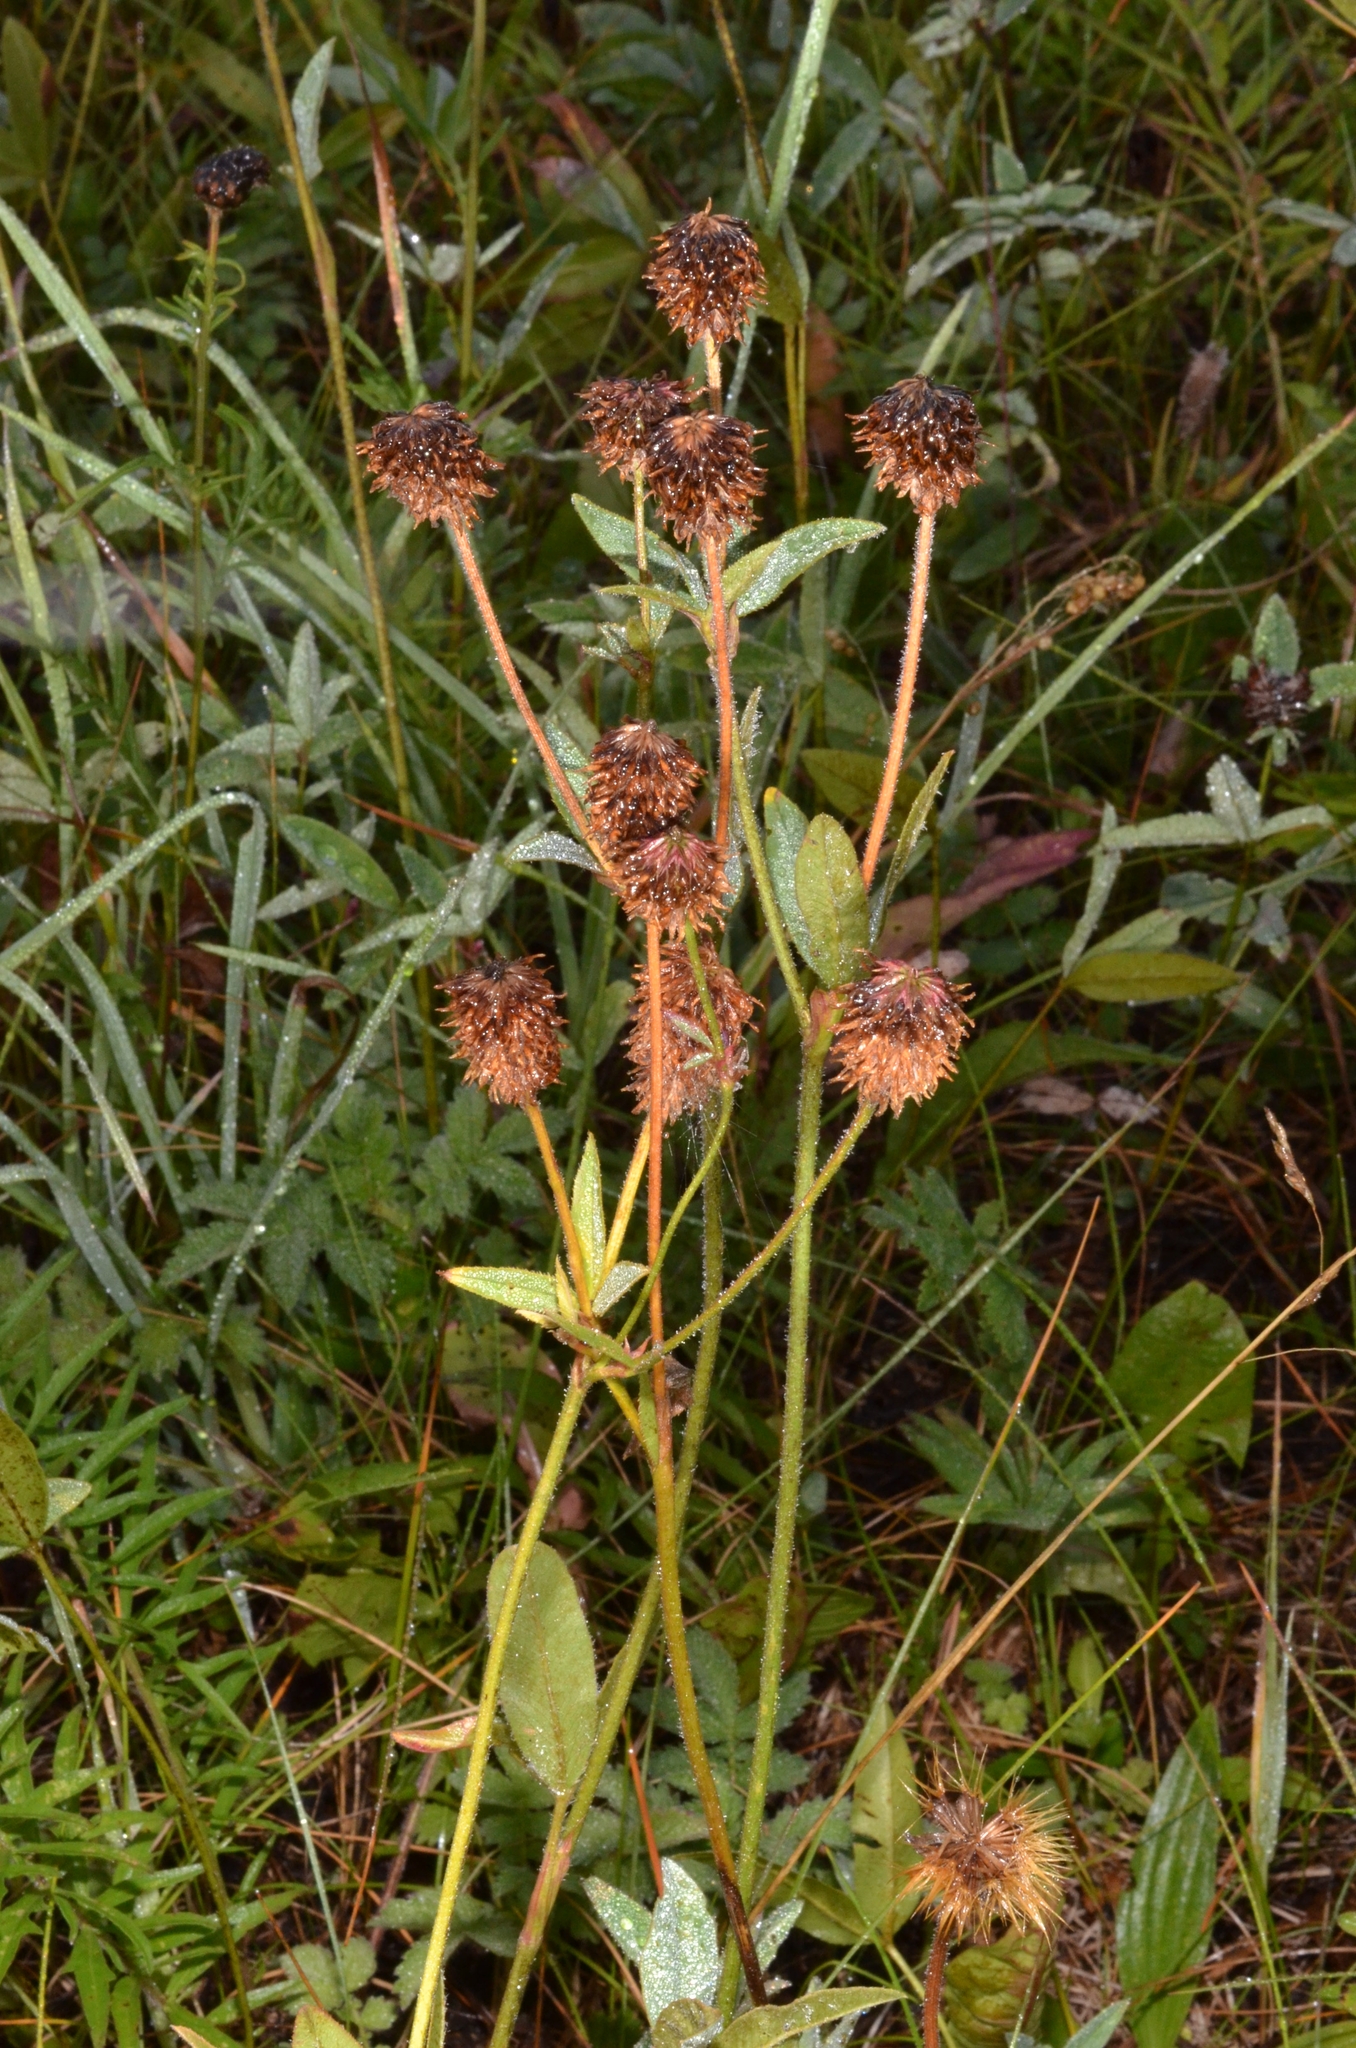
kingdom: Plantae
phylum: Tracheophyta
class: Magnoliopsida
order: Fabales
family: Fabaceae
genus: Trifolium
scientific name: Trifolium montanum
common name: Mountain clover
